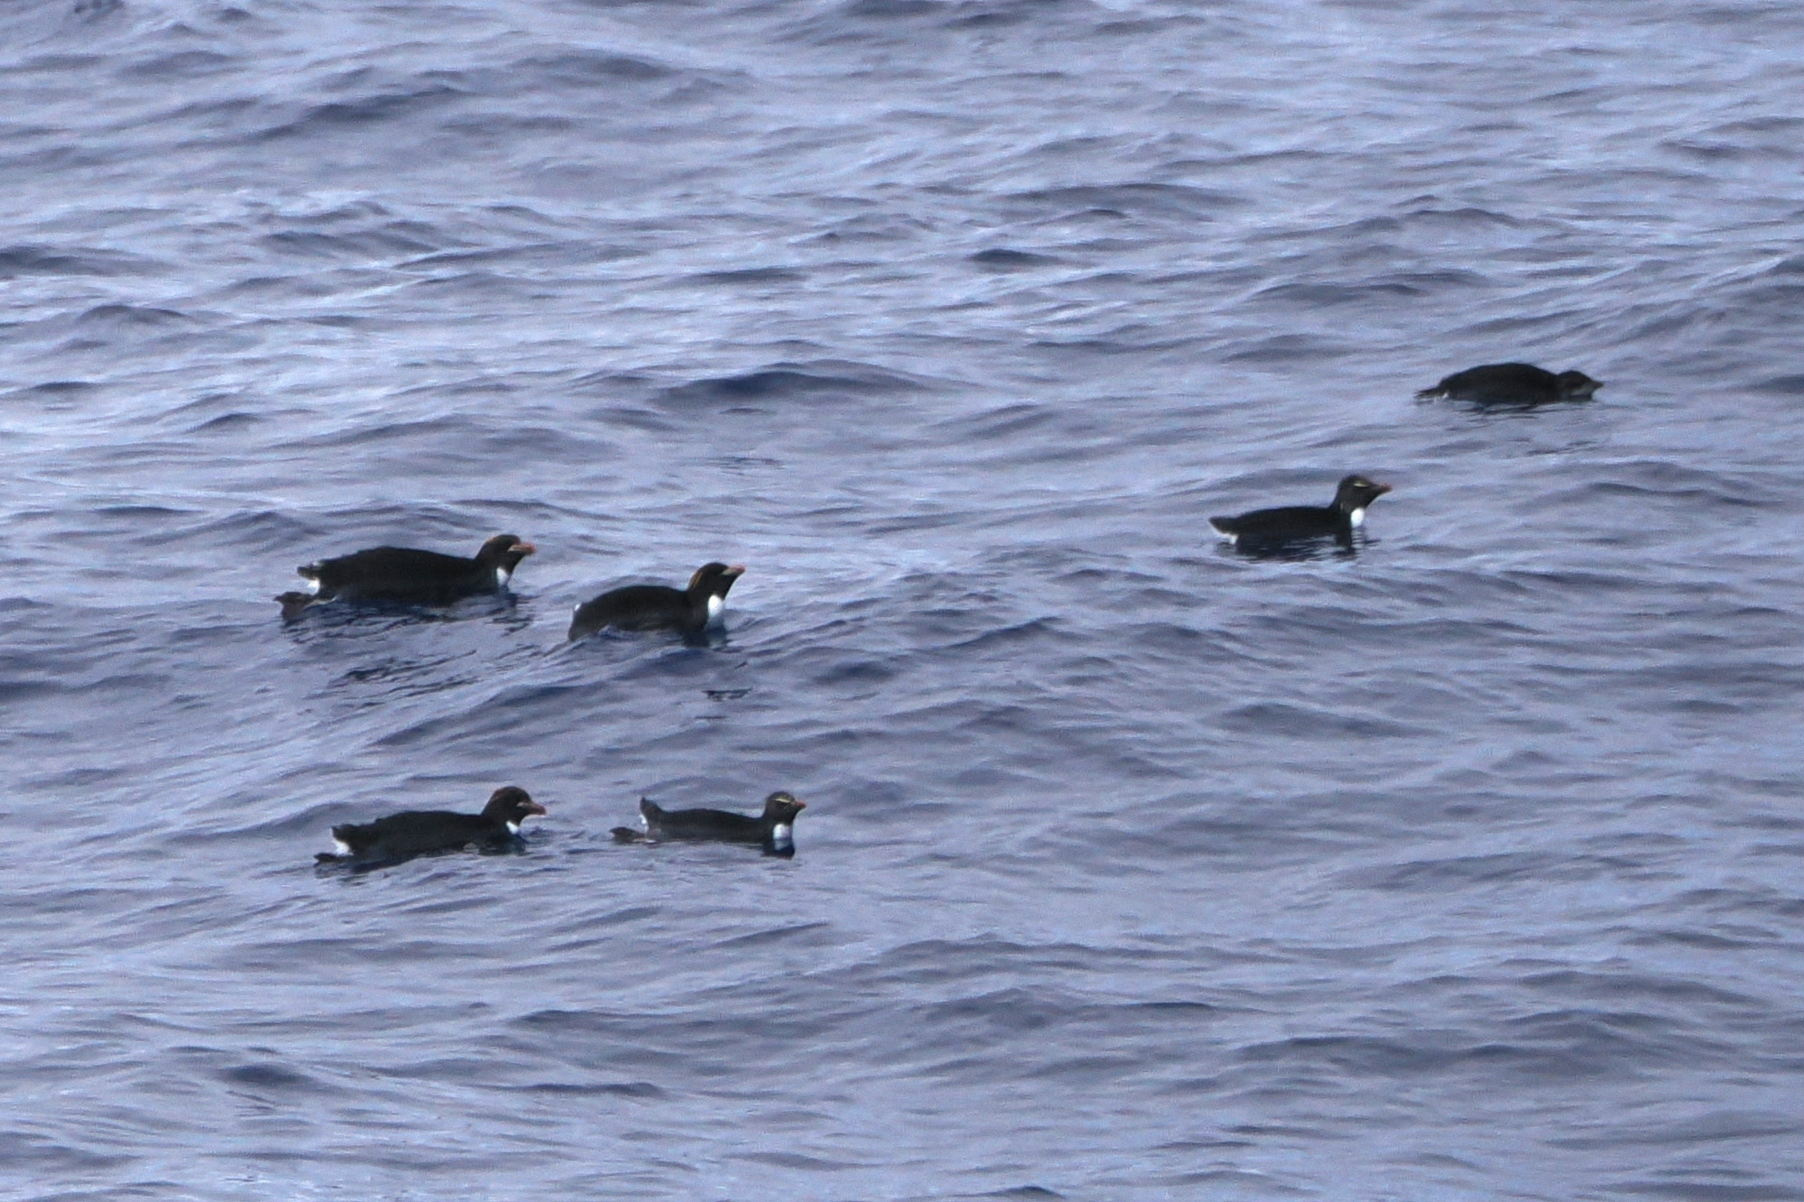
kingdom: Animalia
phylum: Chordata
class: Aves
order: Sphenisciformes
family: Spheniscidae
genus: Eudyptes
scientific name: Eudyptes chrysocome
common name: Southern rockhopper penguin
